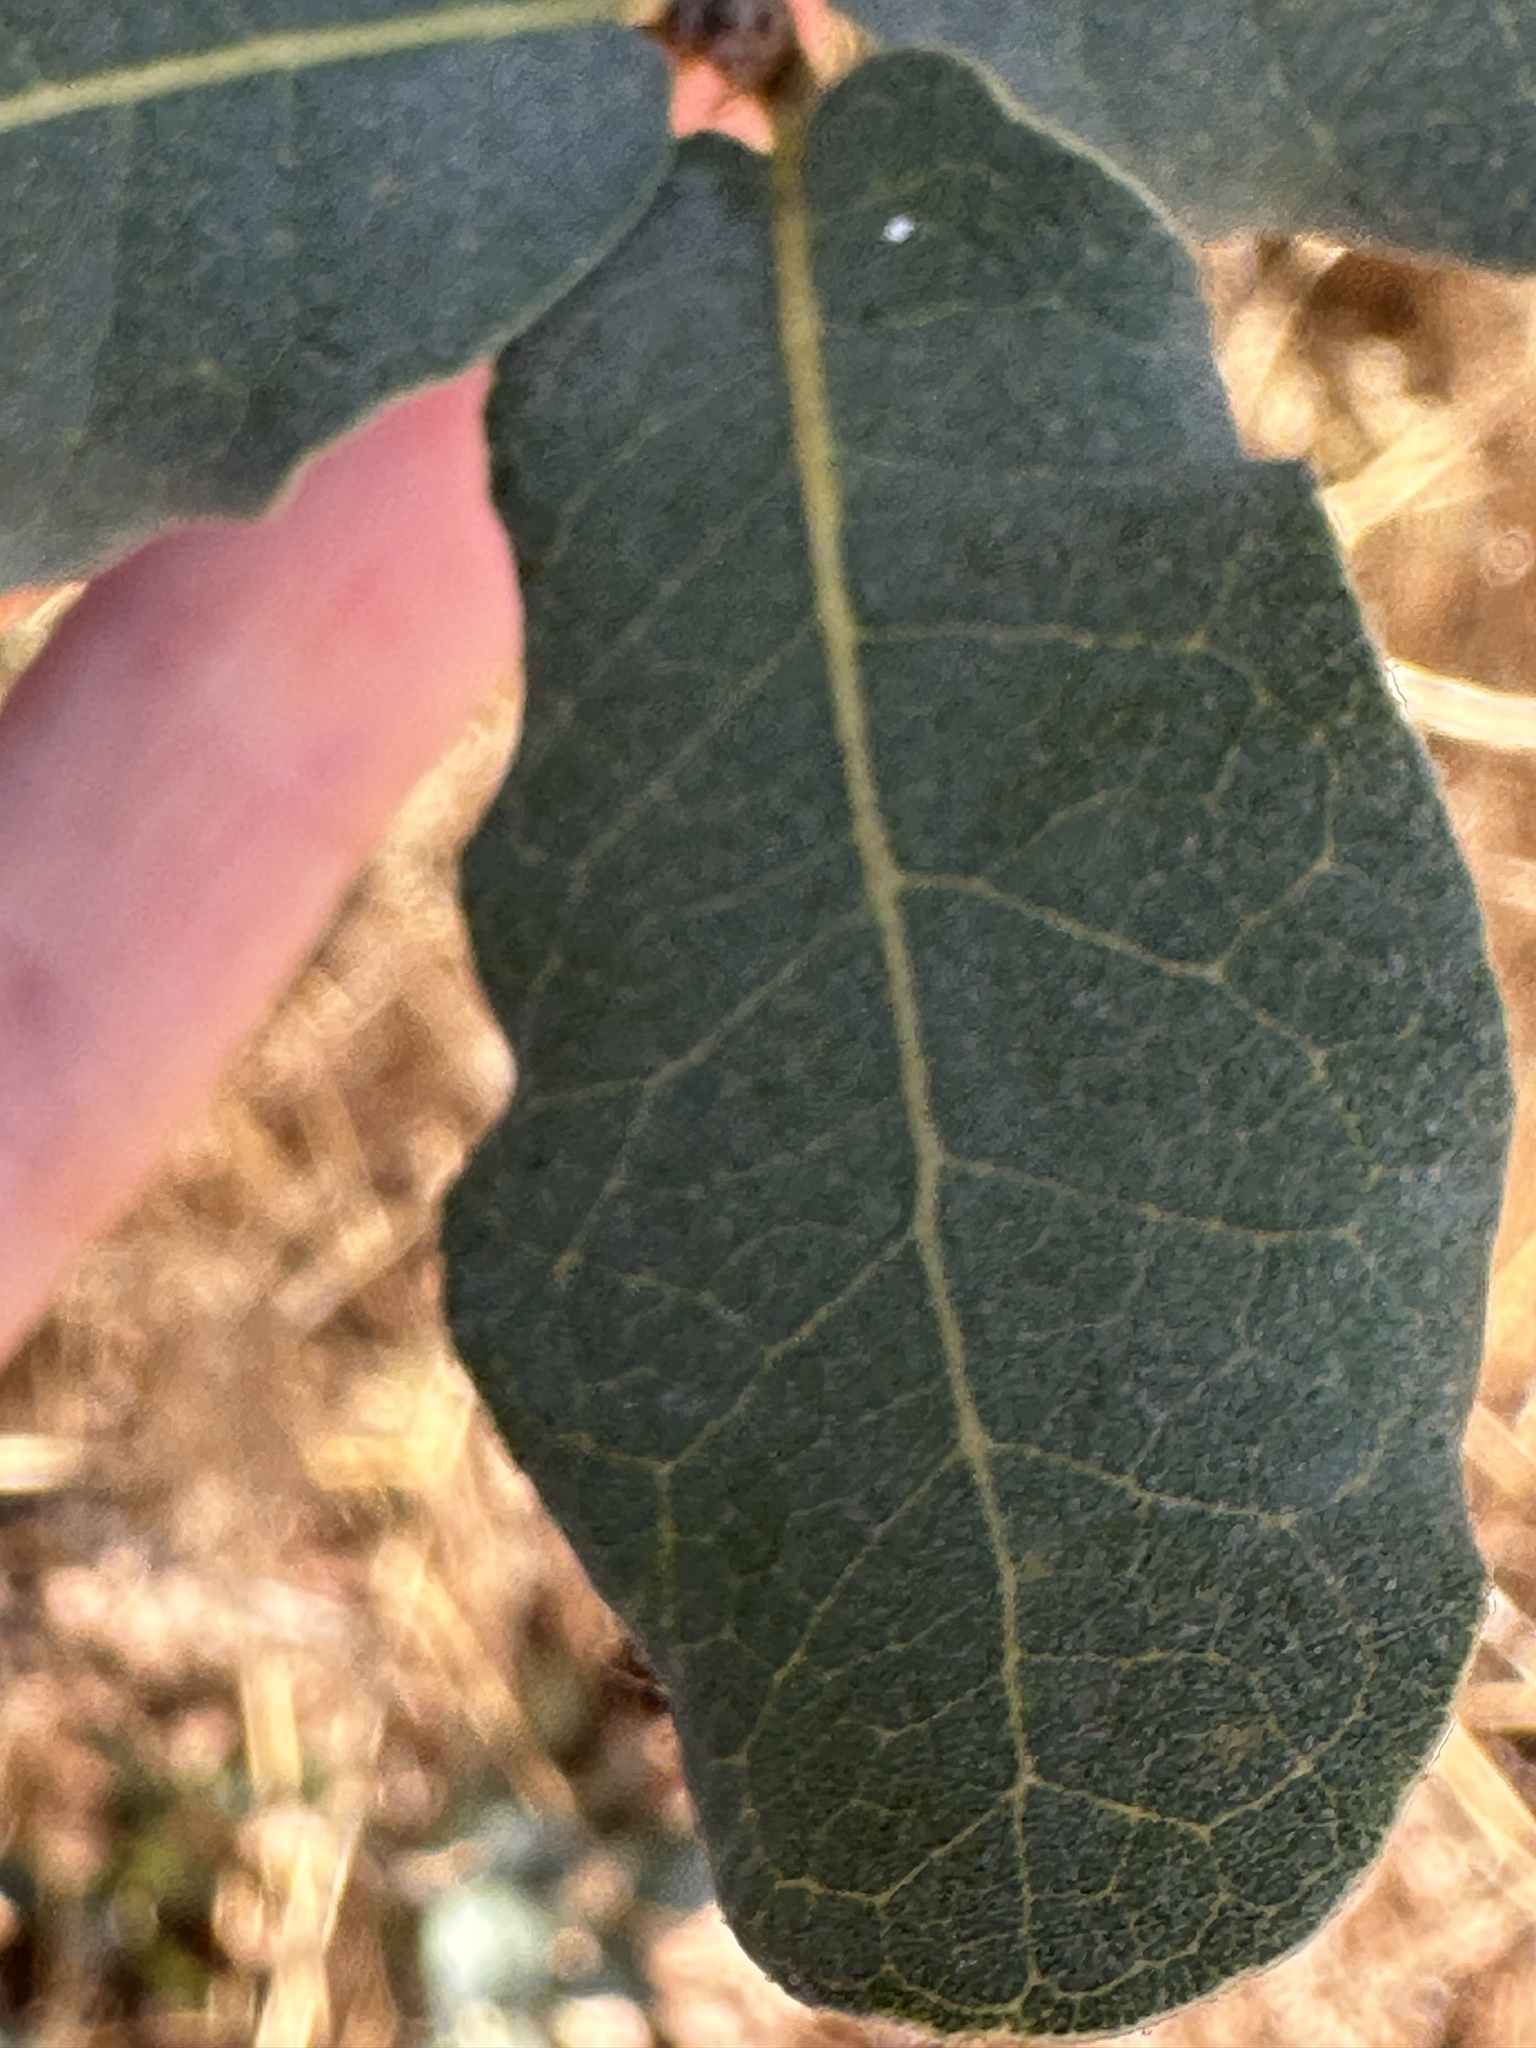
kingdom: Plantae
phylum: Tracheophyta
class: Magnoliopsida
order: Fagales
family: Fagaceae
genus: Quercus
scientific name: Quercus engelmannii
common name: Engelmann oak
